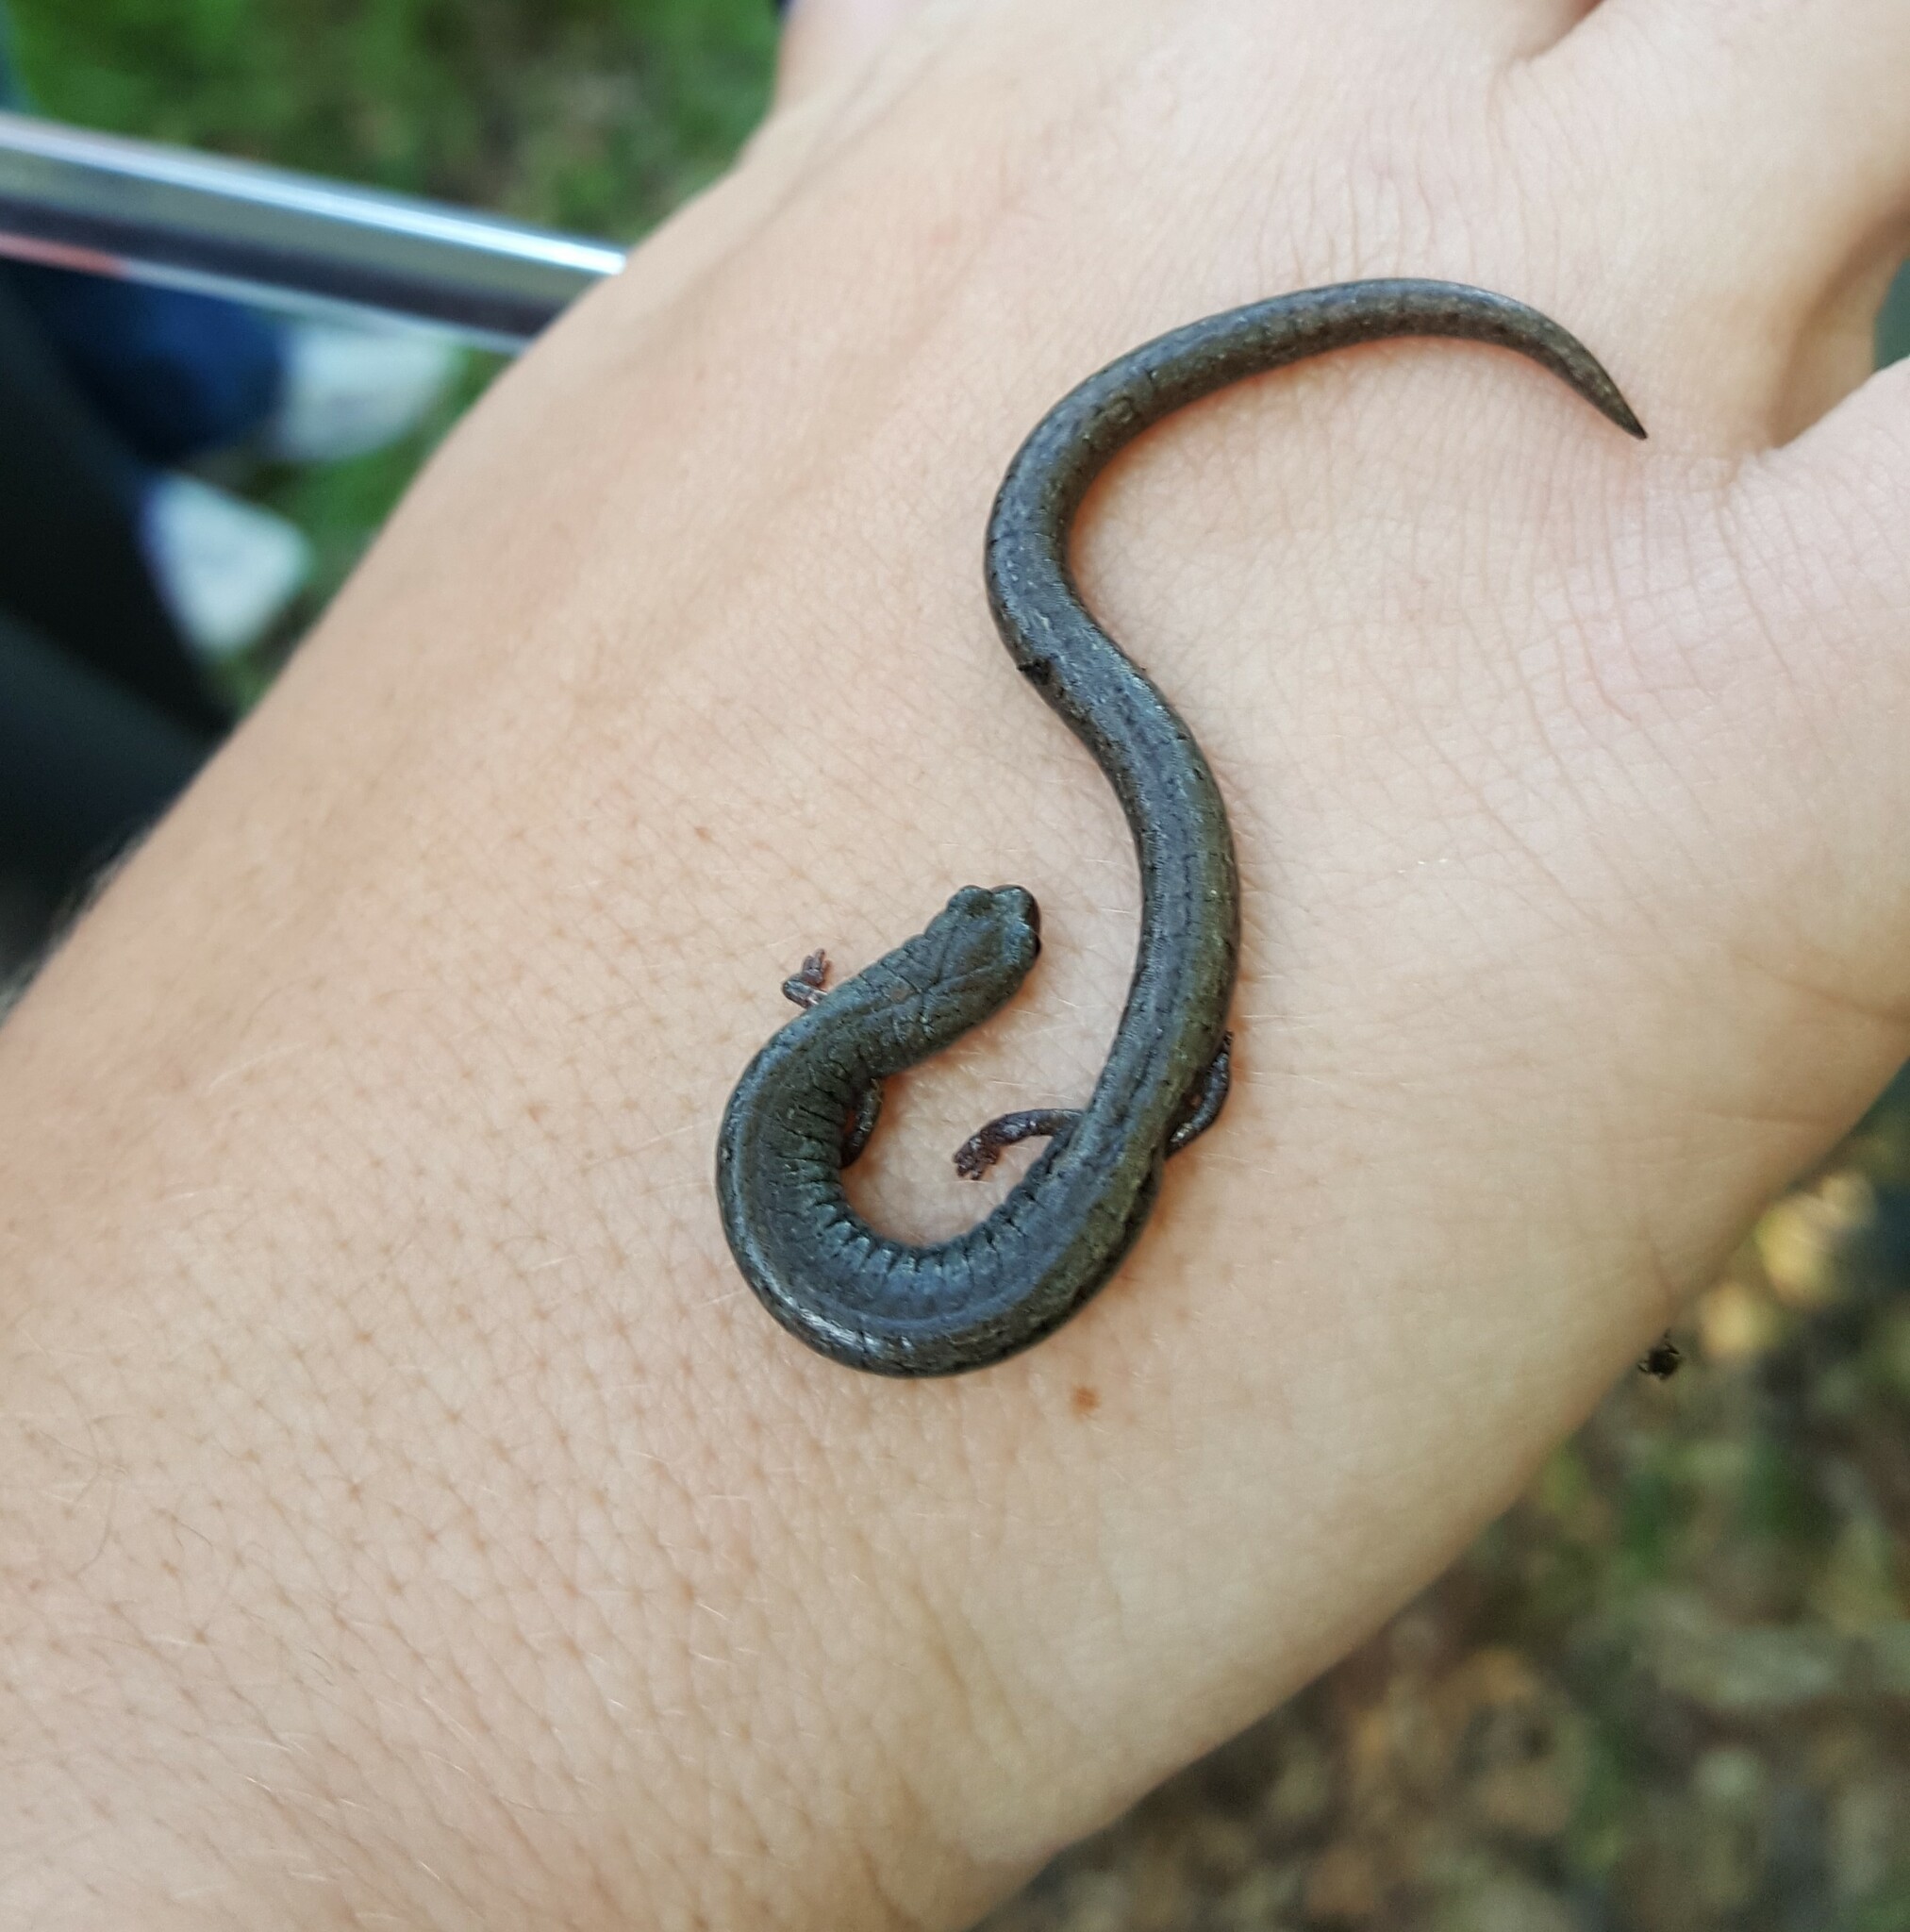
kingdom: Animalia
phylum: Chordata
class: Amphibia
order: Caudata
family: Plethodontidae
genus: Batrachoseps
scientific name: Batrachoseps nigriventris
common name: Black-bellied slender salamander
